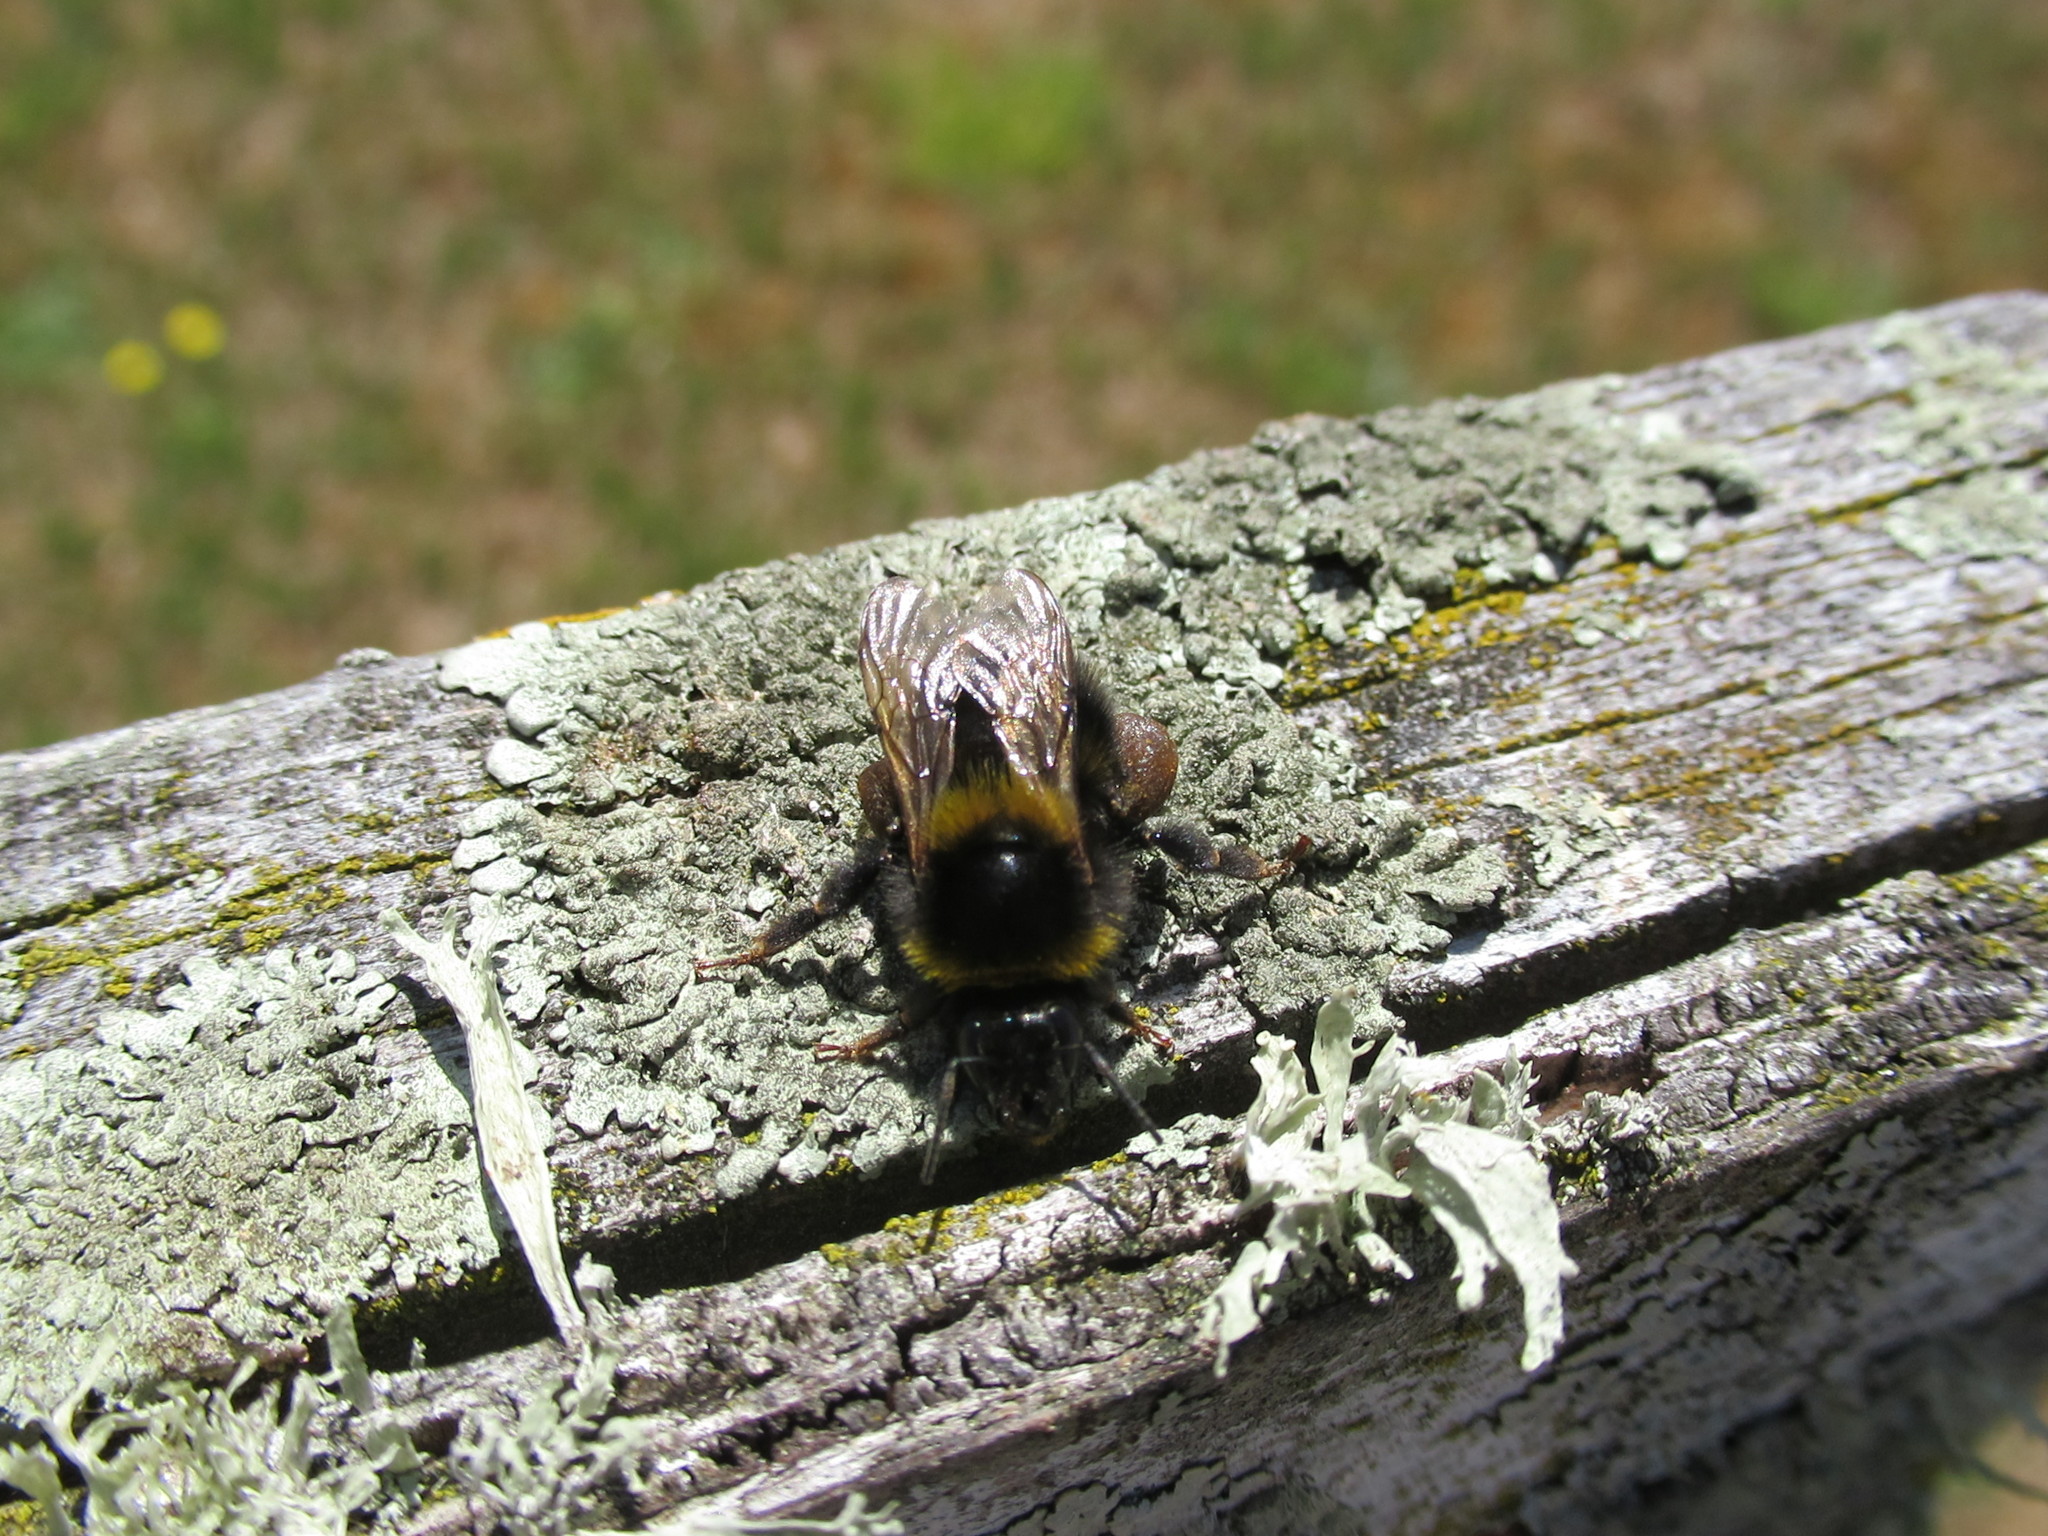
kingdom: Animalia
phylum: Arthropoda
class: Insecta
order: Hymenoptera
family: Apidae
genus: Bombus
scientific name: Bombus ruderatus
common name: Large garden bumblebee
